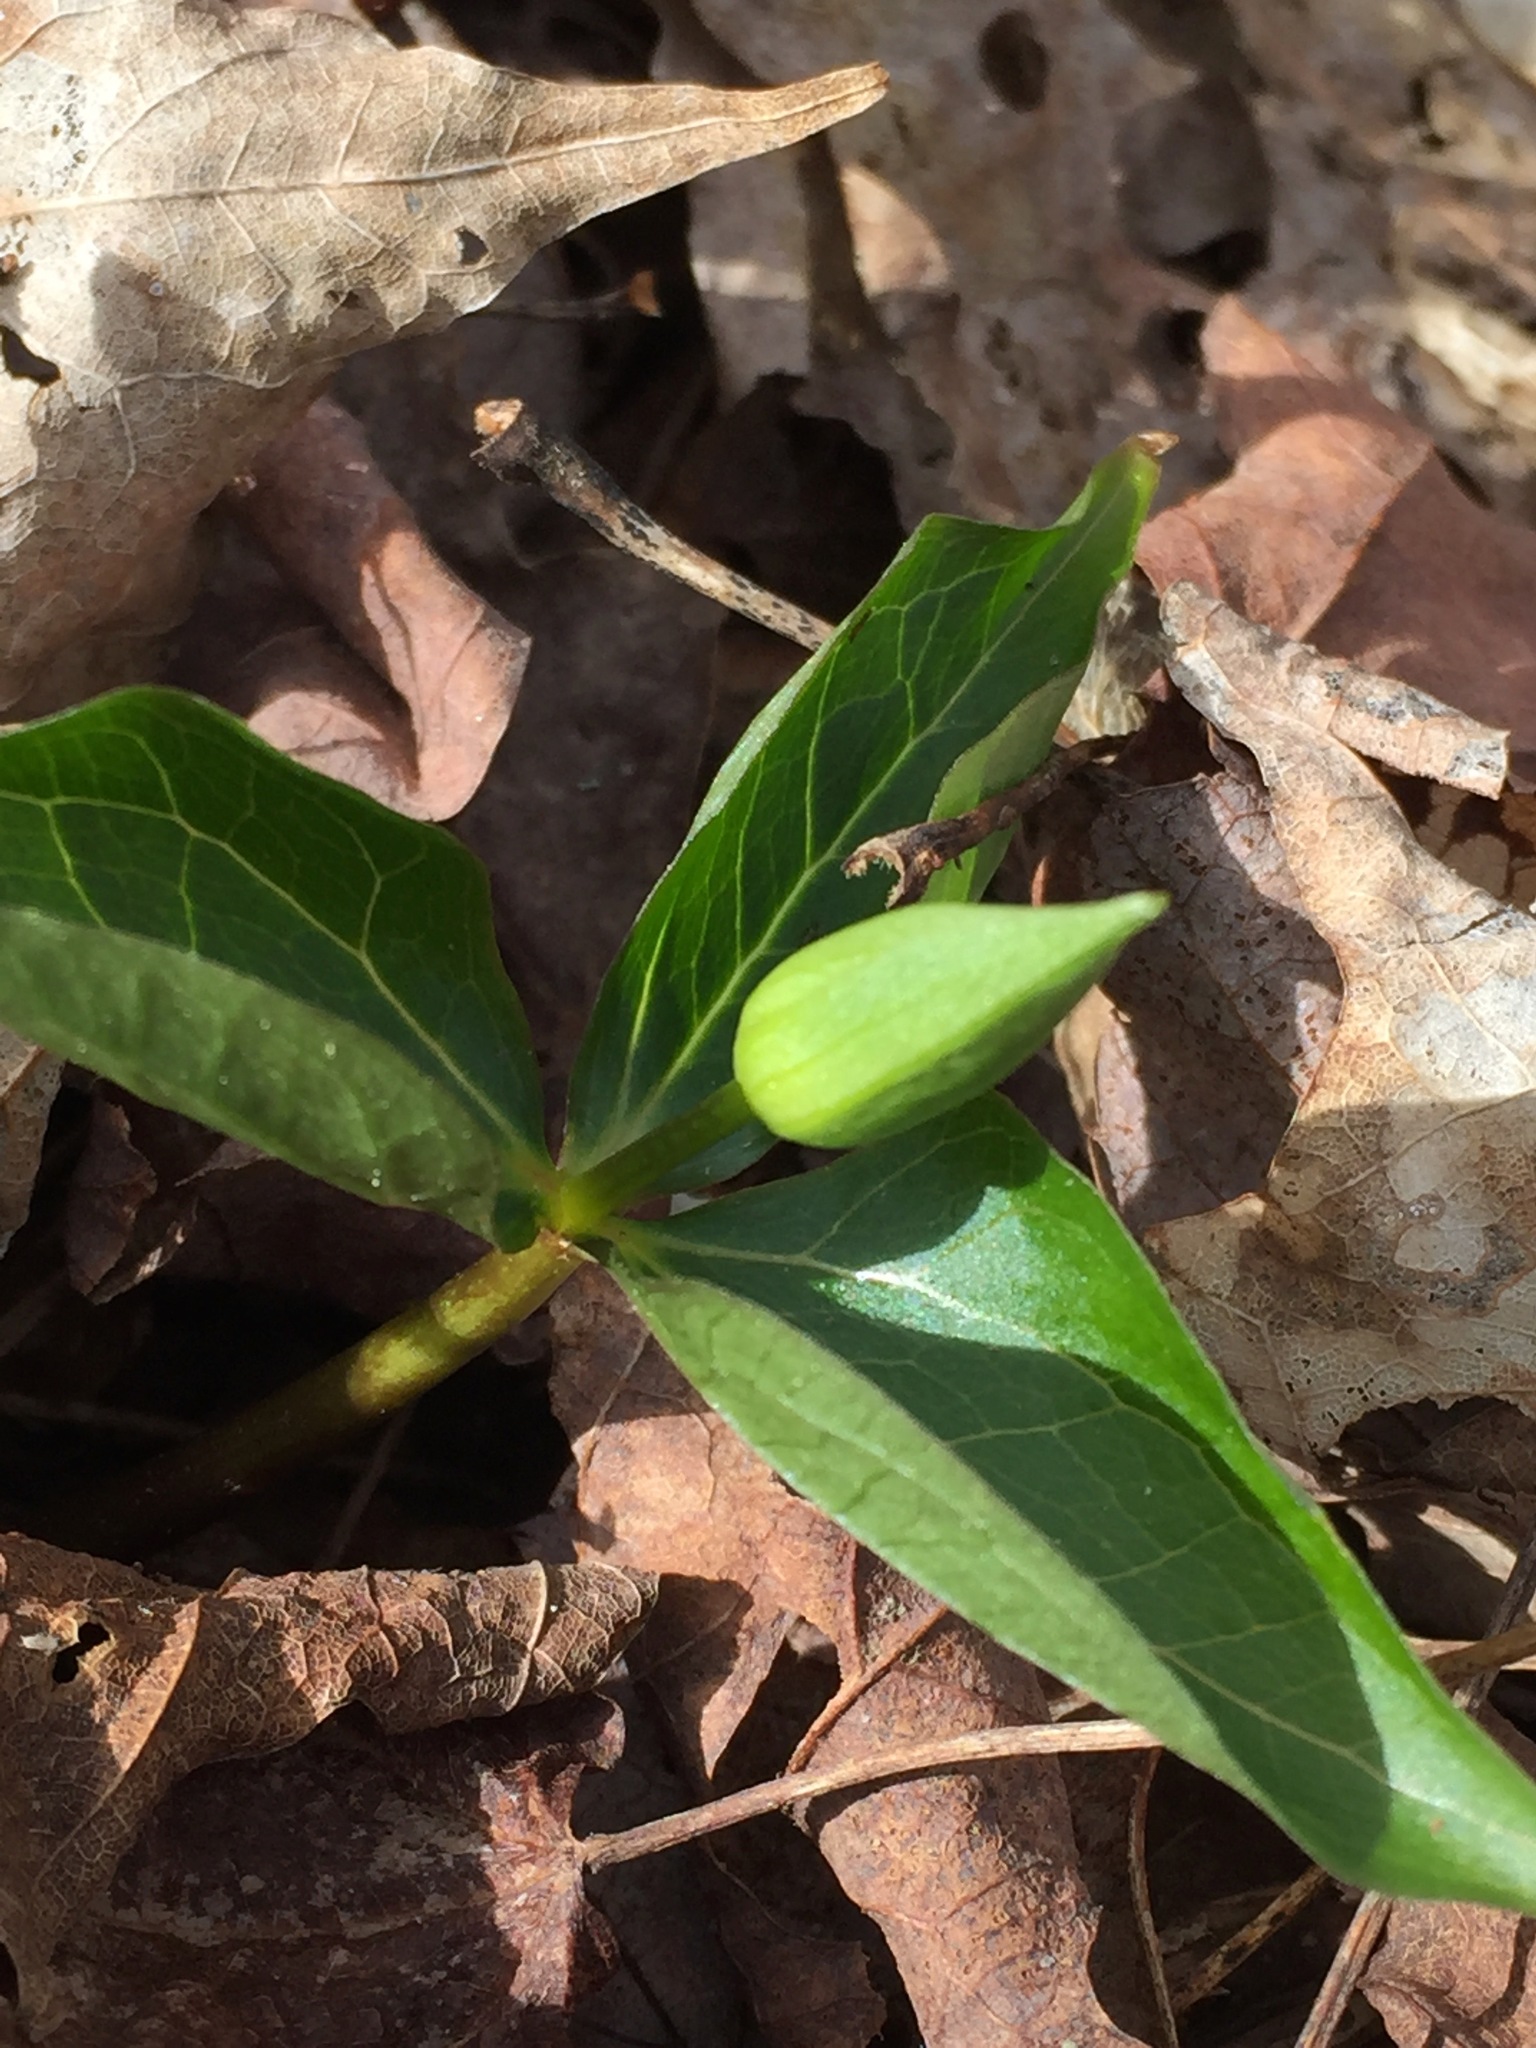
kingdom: Plantae
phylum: Tracheophyta
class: Liliopsida
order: Liliales
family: Melanthiaceae
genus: Trillium
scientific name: Trillium erectum
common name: Purple trillium
